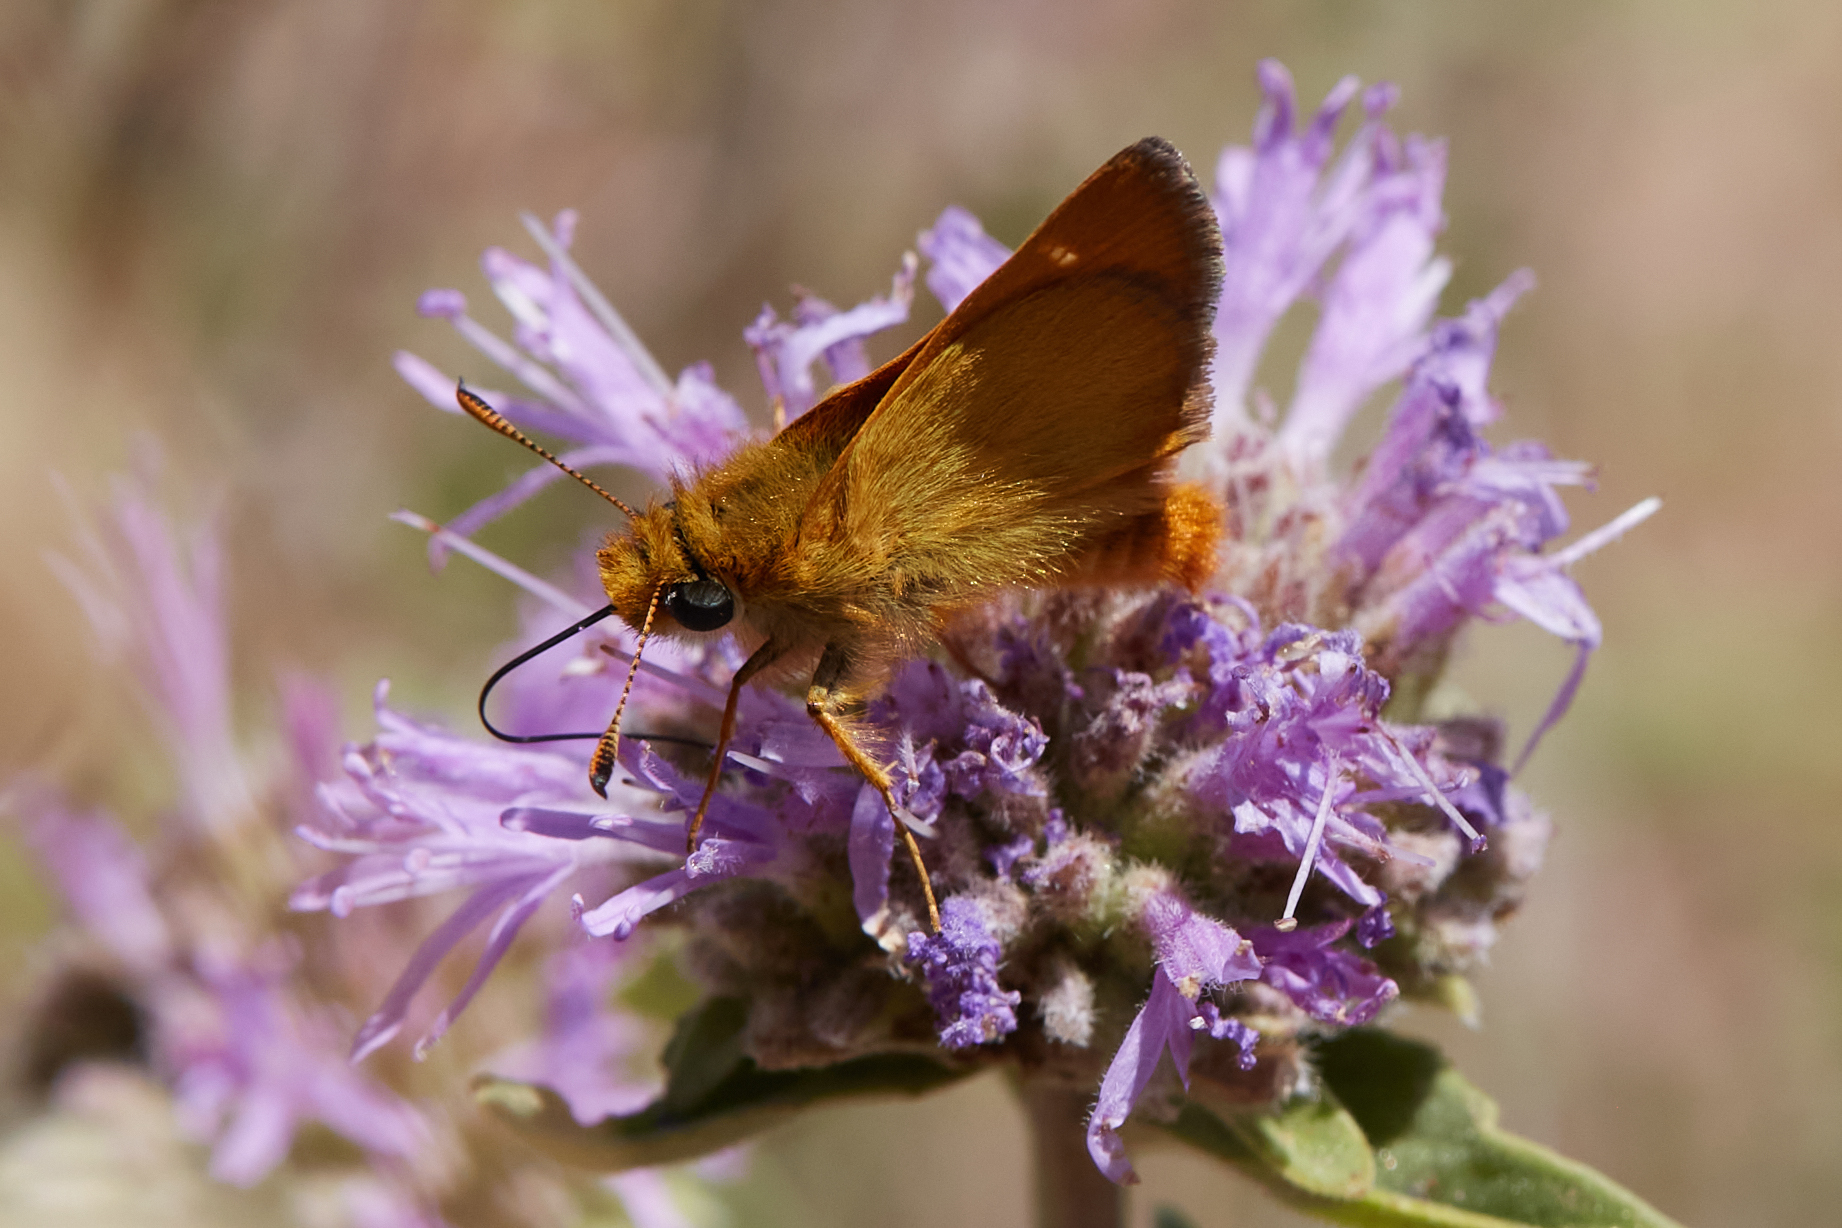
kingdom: Animalia
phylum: Arthropoda
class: Insecta
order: Lepidoptera
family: Hesperiidae
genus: Ochlodes
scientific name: Ochlodes agricola
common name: Rural skipper
